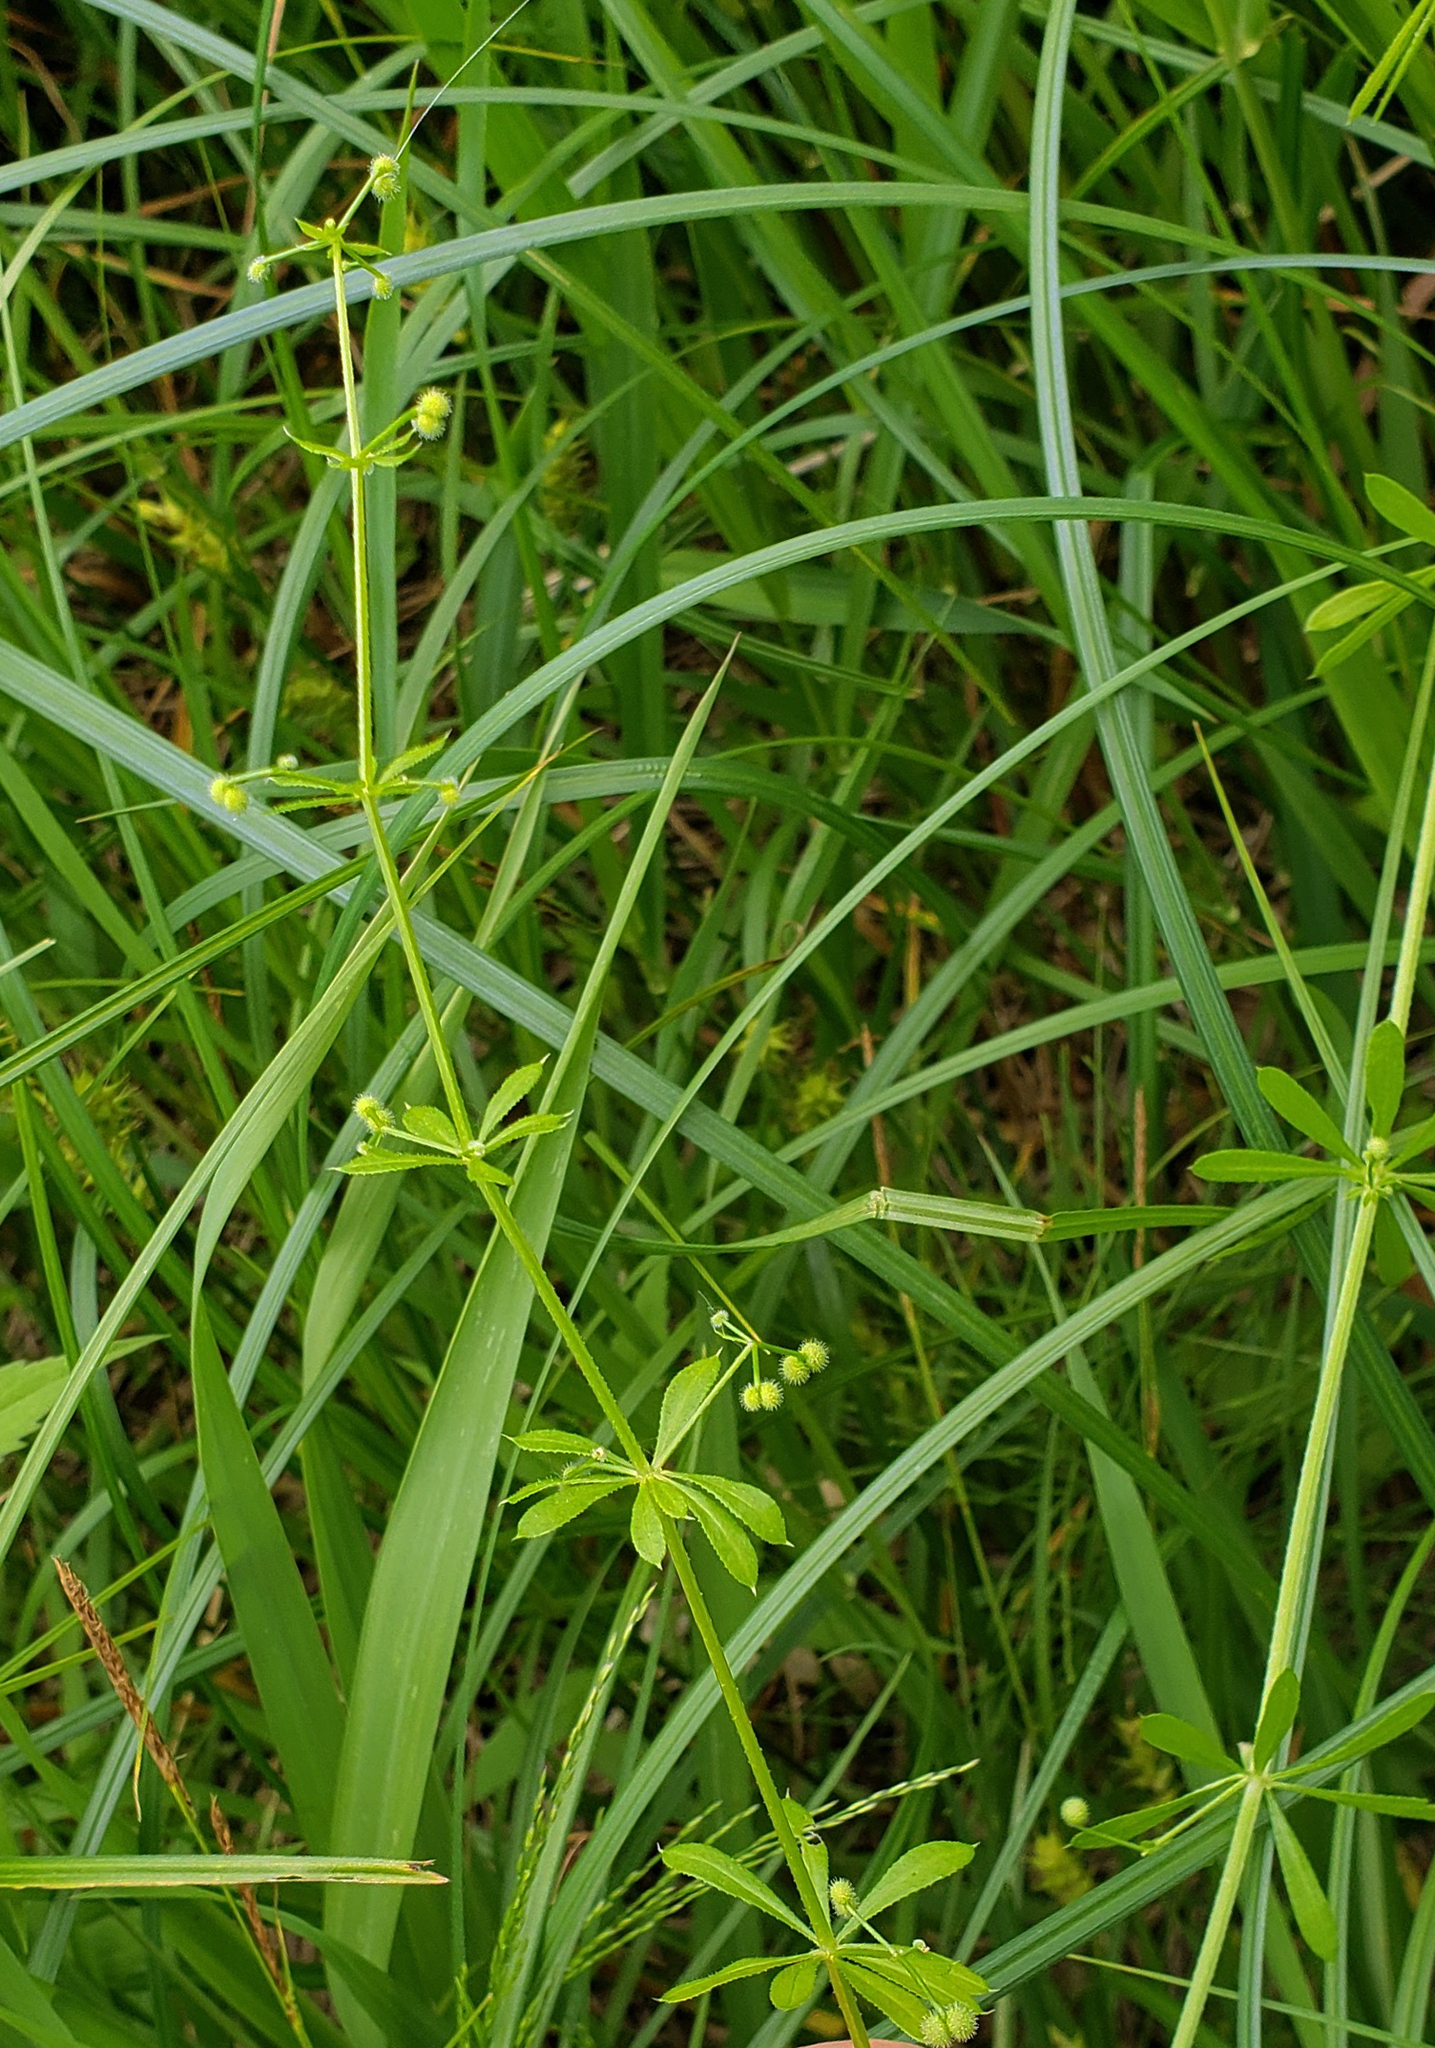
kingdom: Plantae
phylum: Tracheophyta
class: Magnoliopsida
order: Gentianales
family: Rubiaceae
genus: Galium
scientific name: Galium aparine
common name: Cleavers
